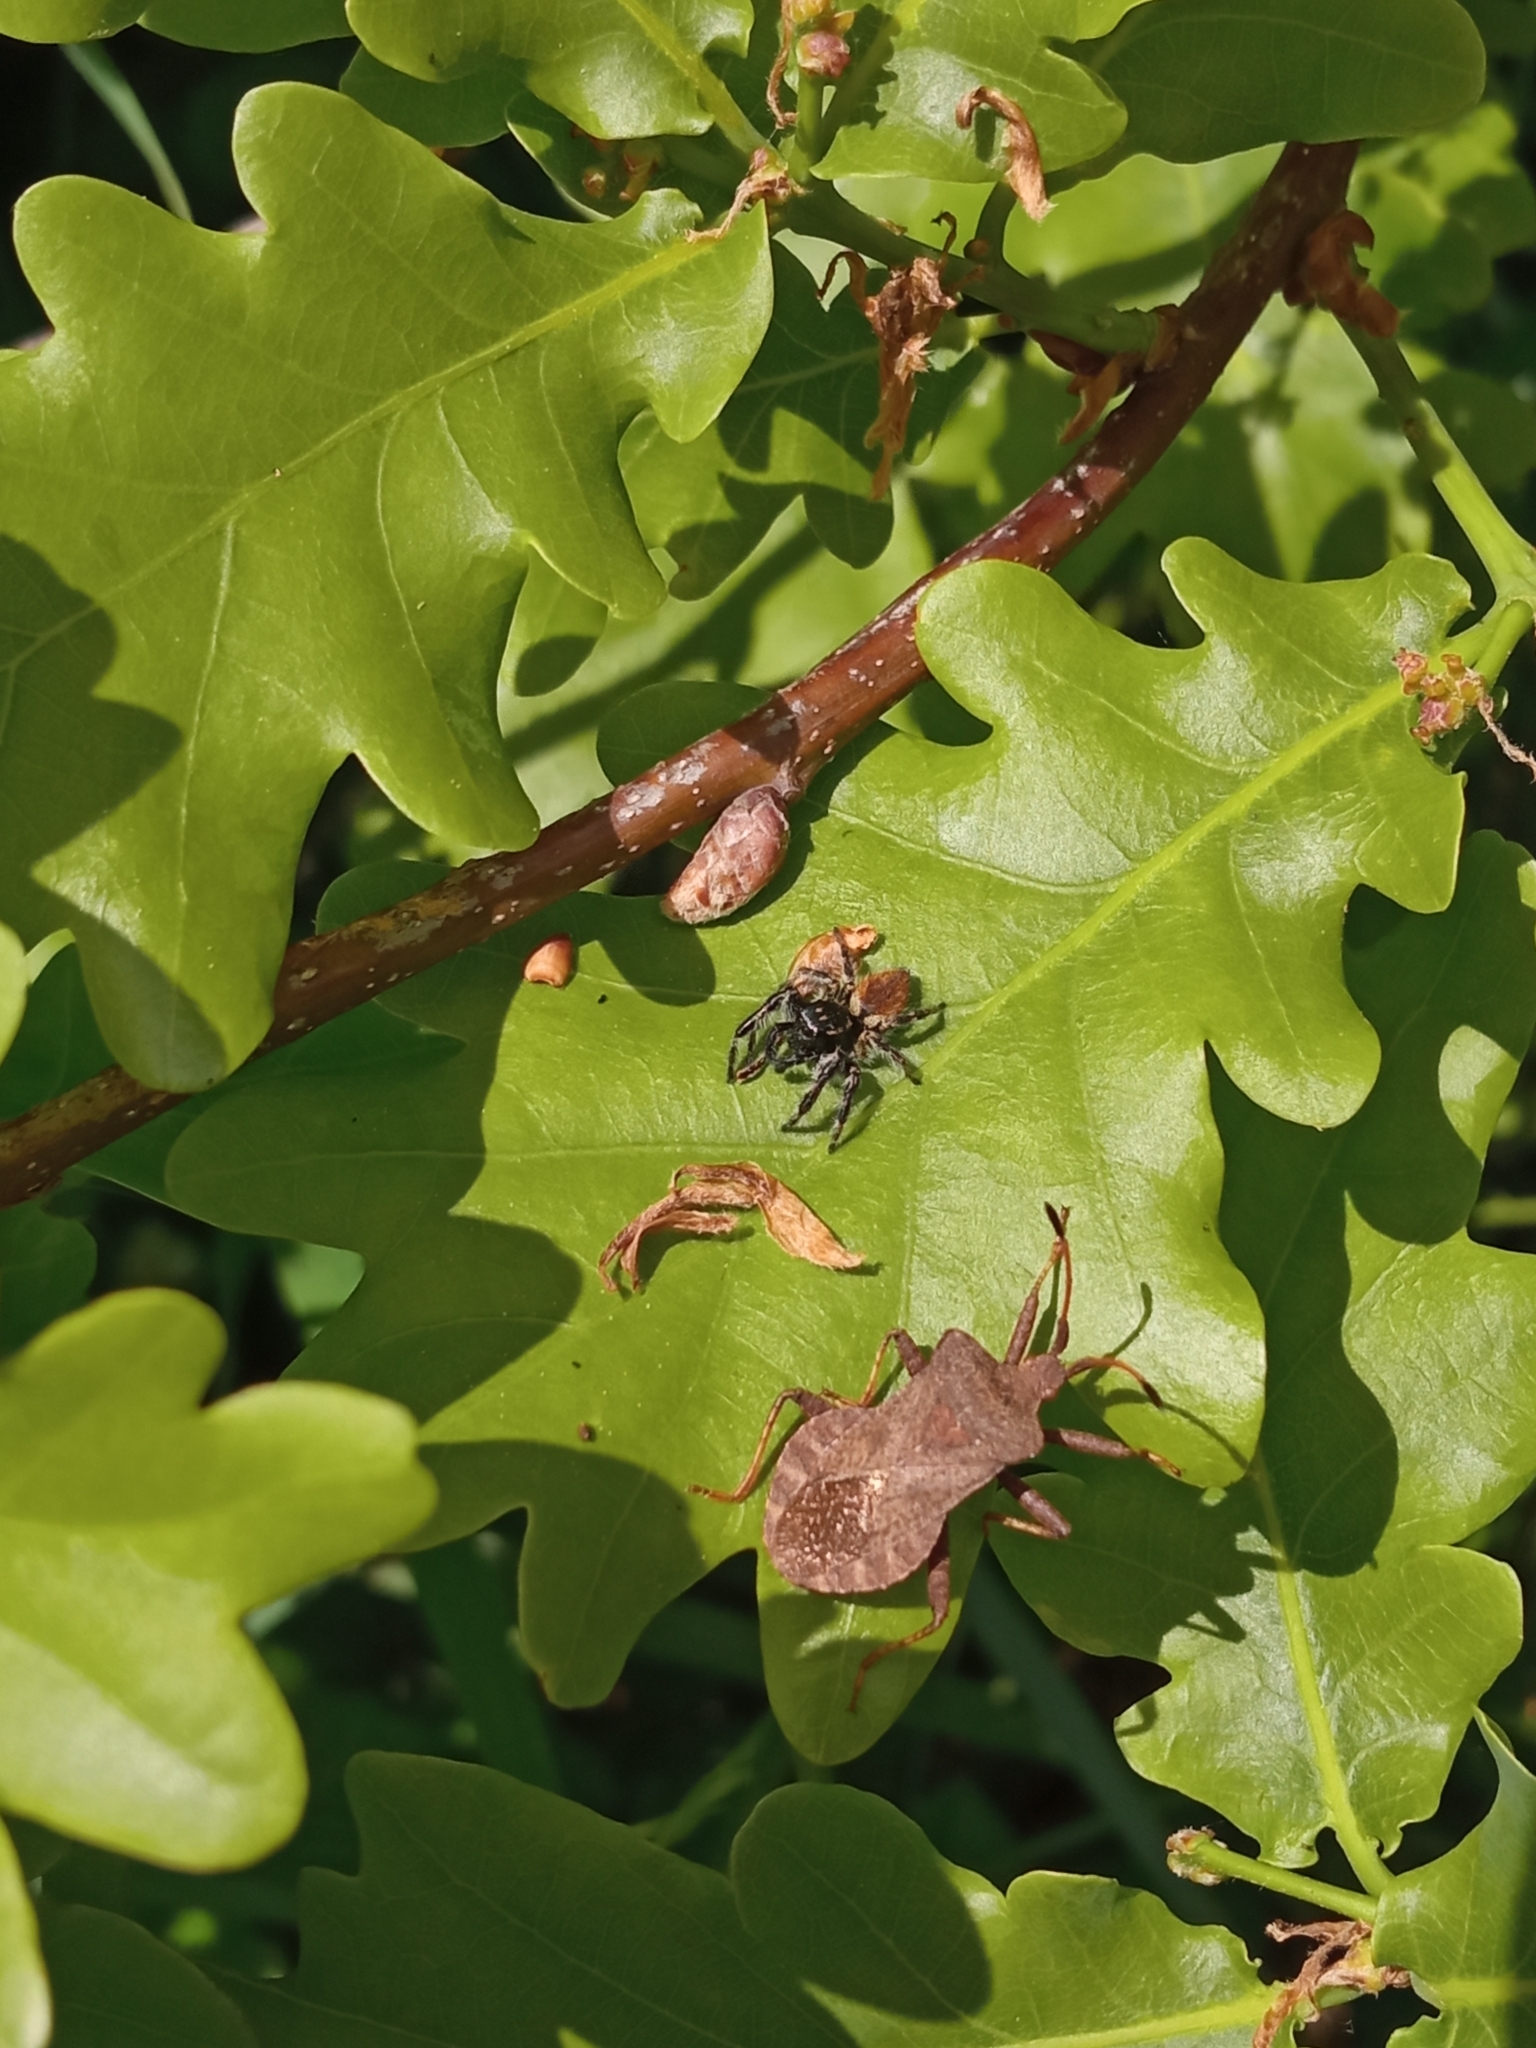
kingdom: Animalia
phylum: Arthropoda
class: Insecta
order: Hemiptera
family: Coreidae
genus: Coreus
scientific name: Coreus marginatus
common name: Dock bug
